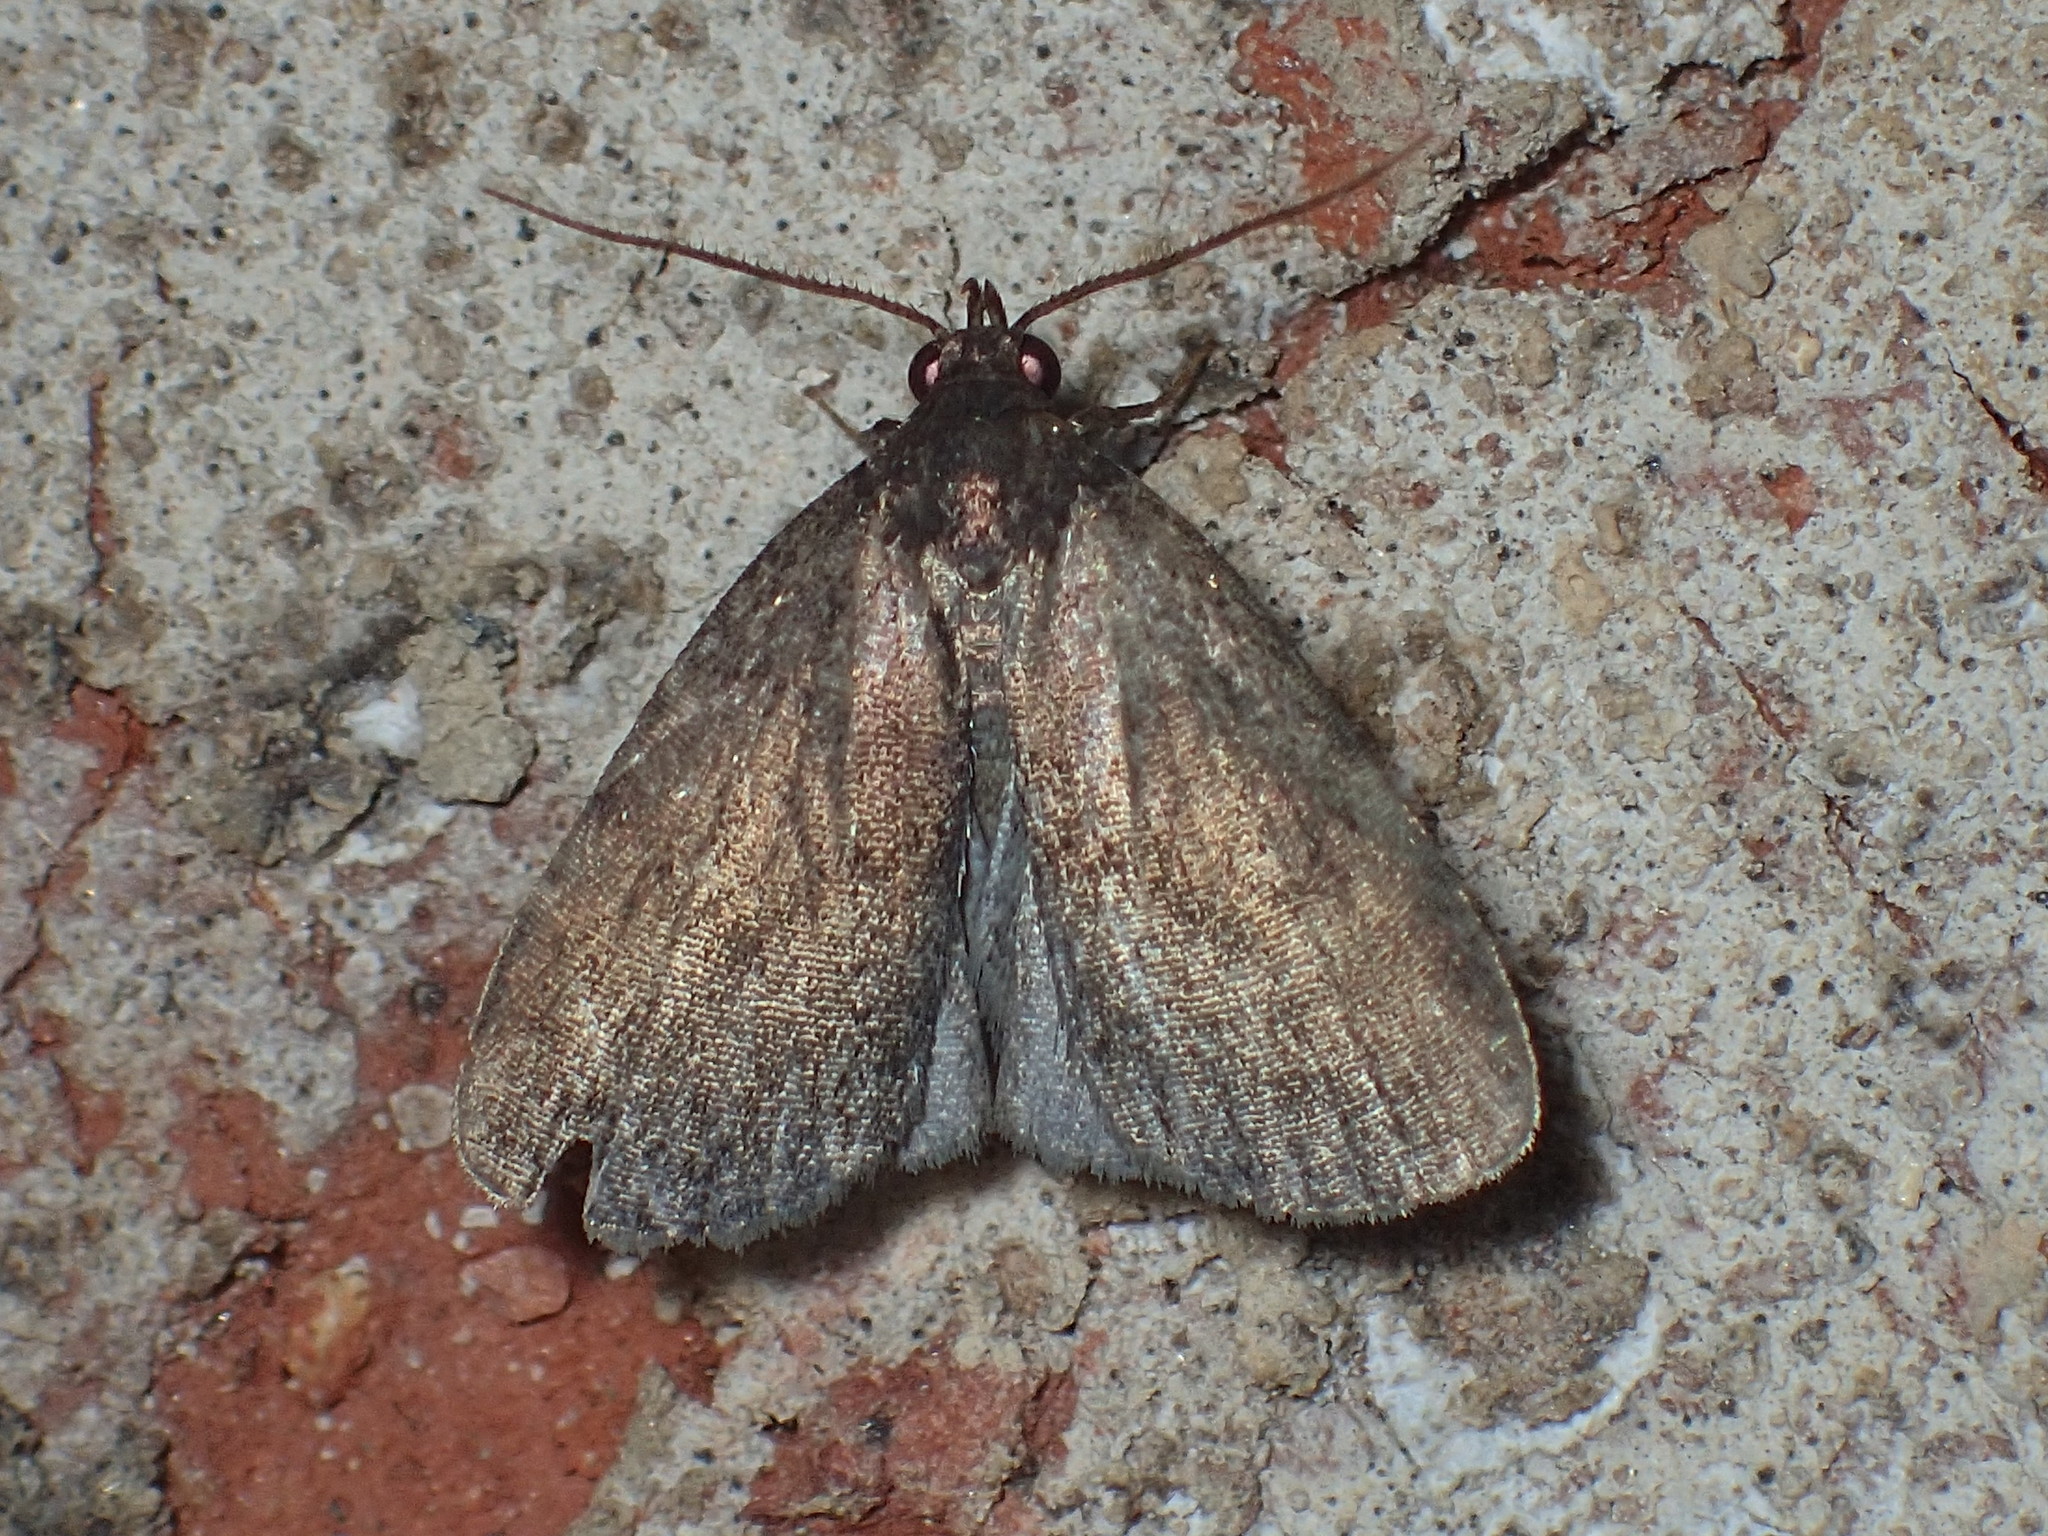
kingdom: Animalia
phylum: Arthropoda
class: Insecta
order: Lepidoptera
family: Erebidae
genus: Idia
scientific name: Idia rotundalis
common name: Rotund idia moth
